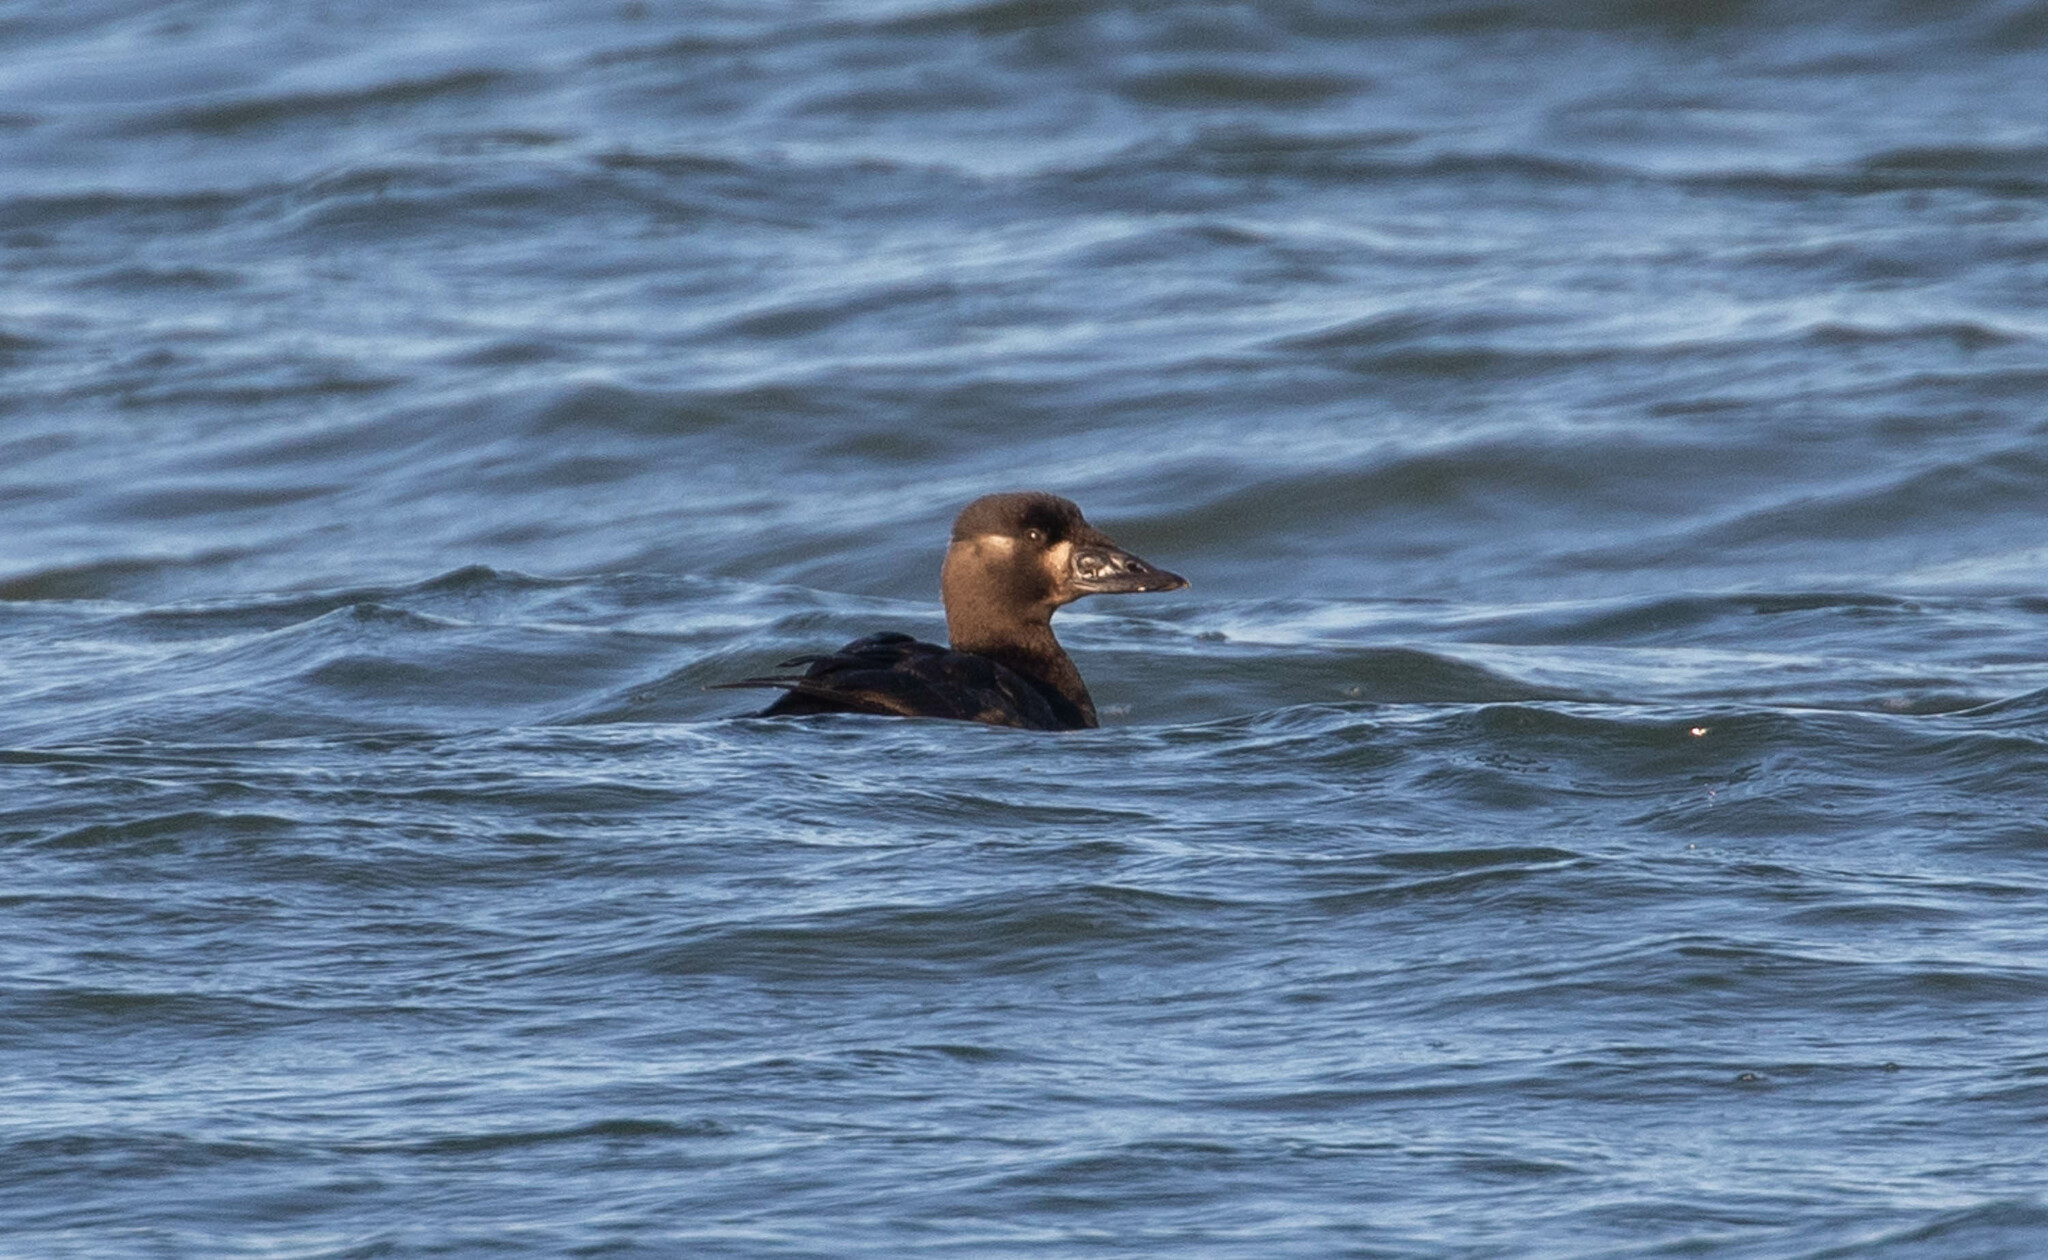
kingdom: Animalia
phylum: Chordata
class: Aves
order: Anseriformes
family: Anatidae
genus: Melanitta
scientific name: Melanitta perspicillata
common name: Surf scoter
